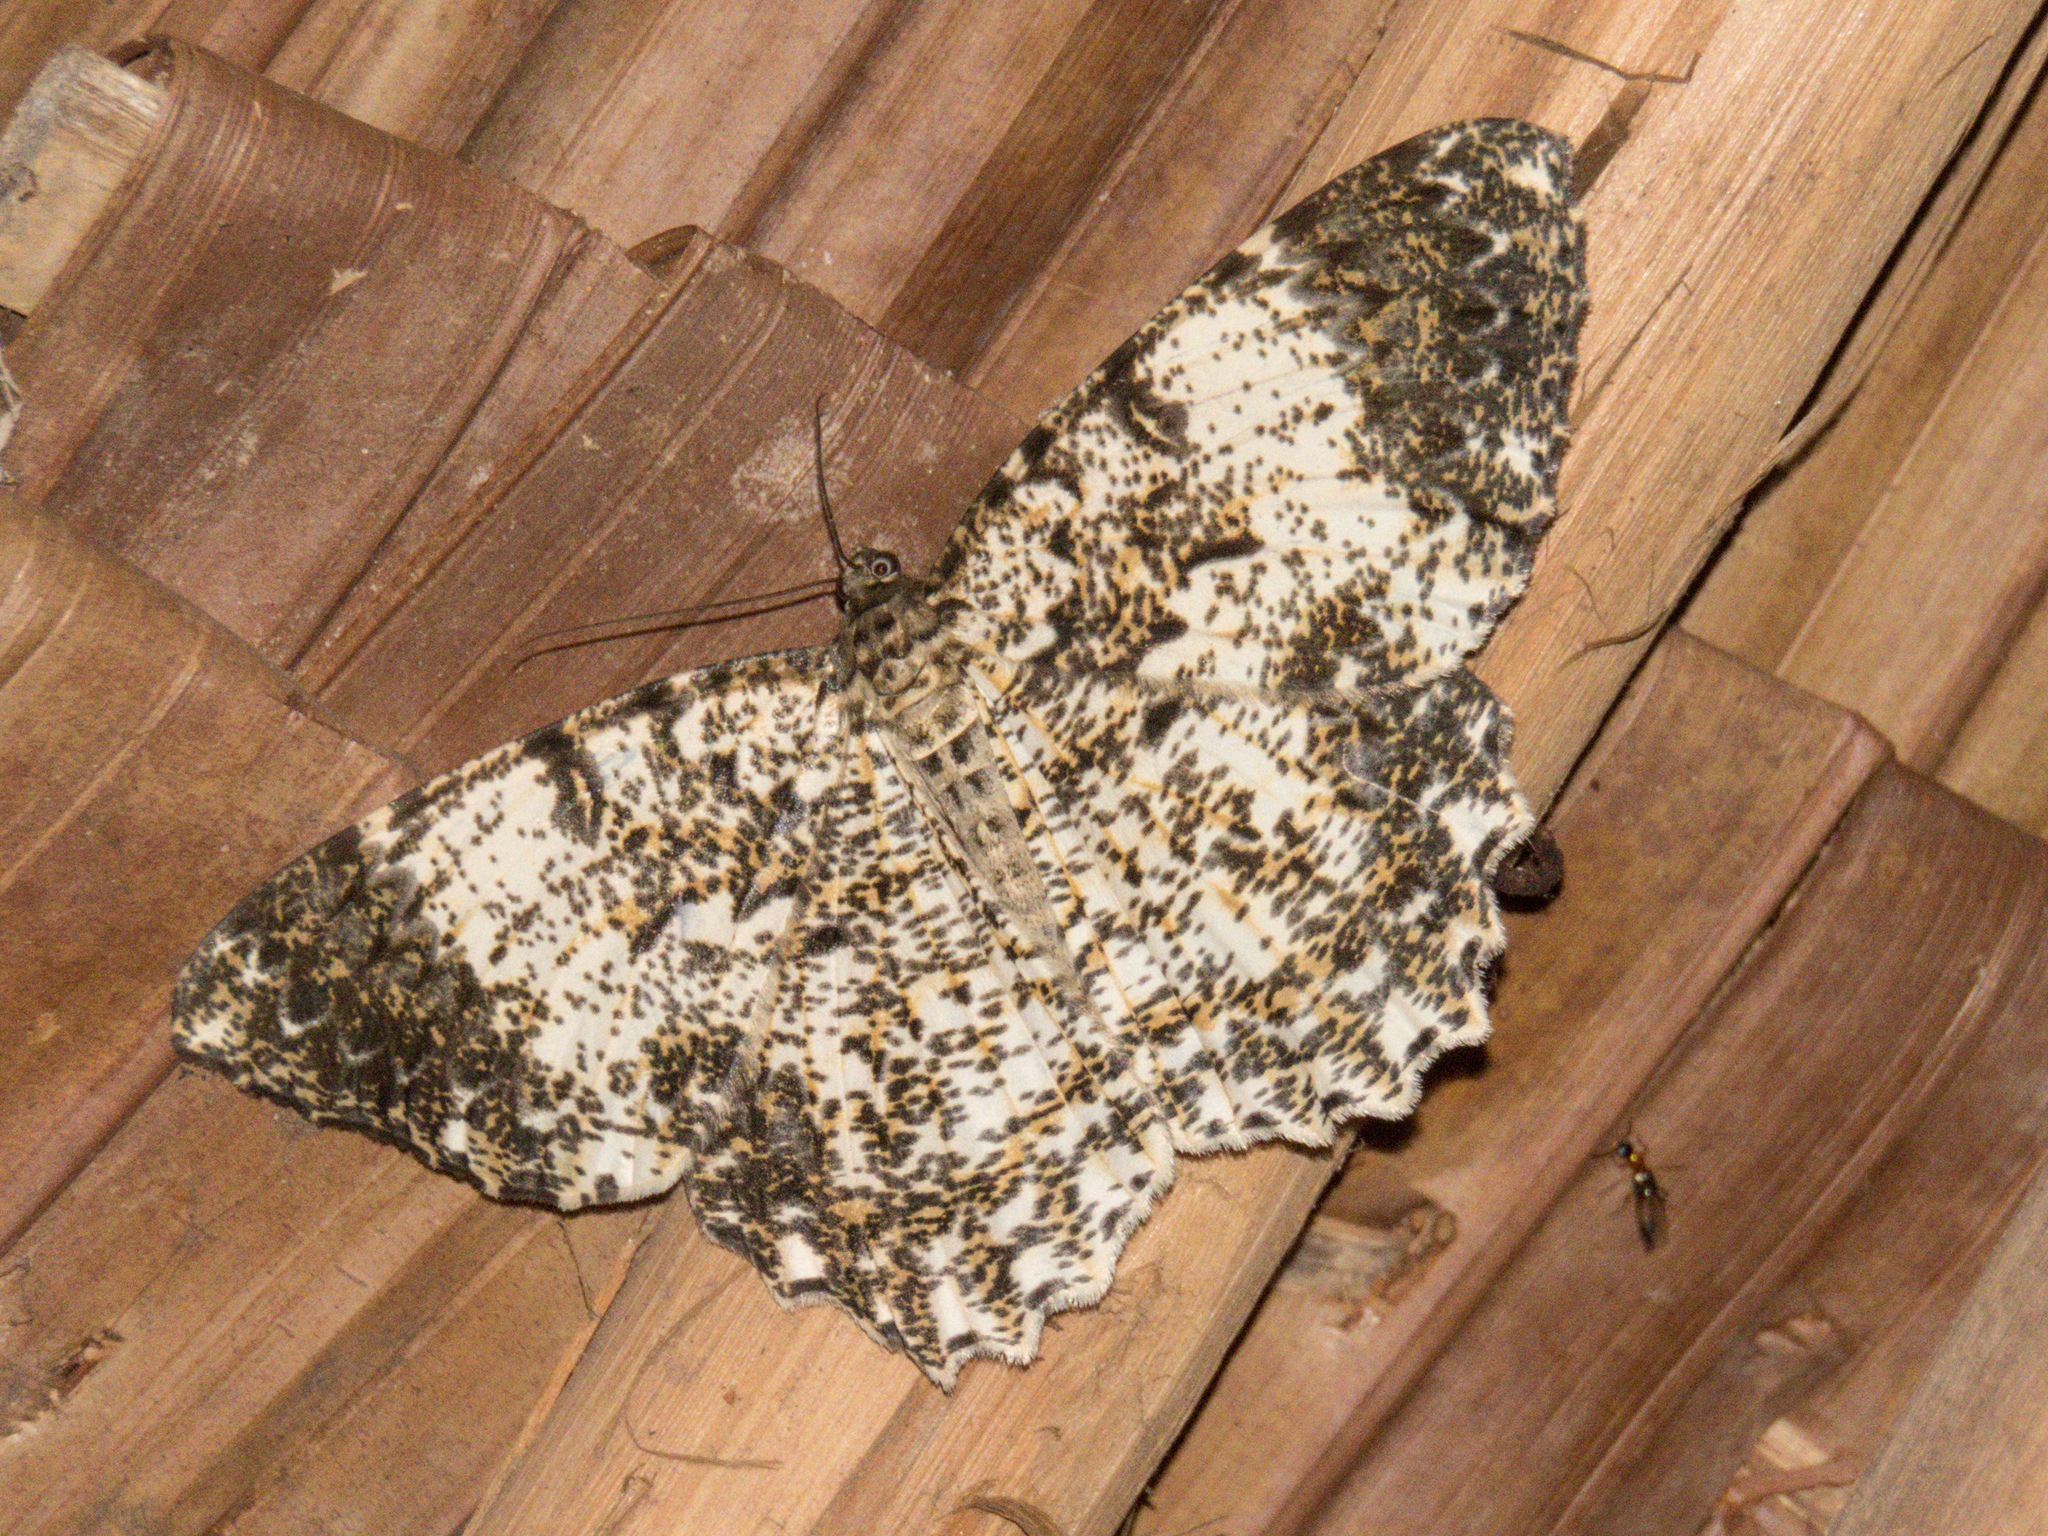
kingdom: Animalia
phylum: Arthropoda
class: Insecta
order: Lepidoptera
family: Geometridae
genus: Amblychia
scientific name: Amblychia cavimargo
